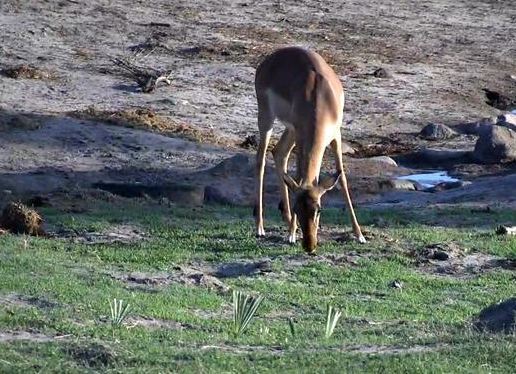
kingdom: Animalia
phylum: Chordata
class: Mammalia
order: Artiodactyla
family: Bovidae
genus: Aepyceros
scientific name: Aepyceros melampus
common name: Impala
